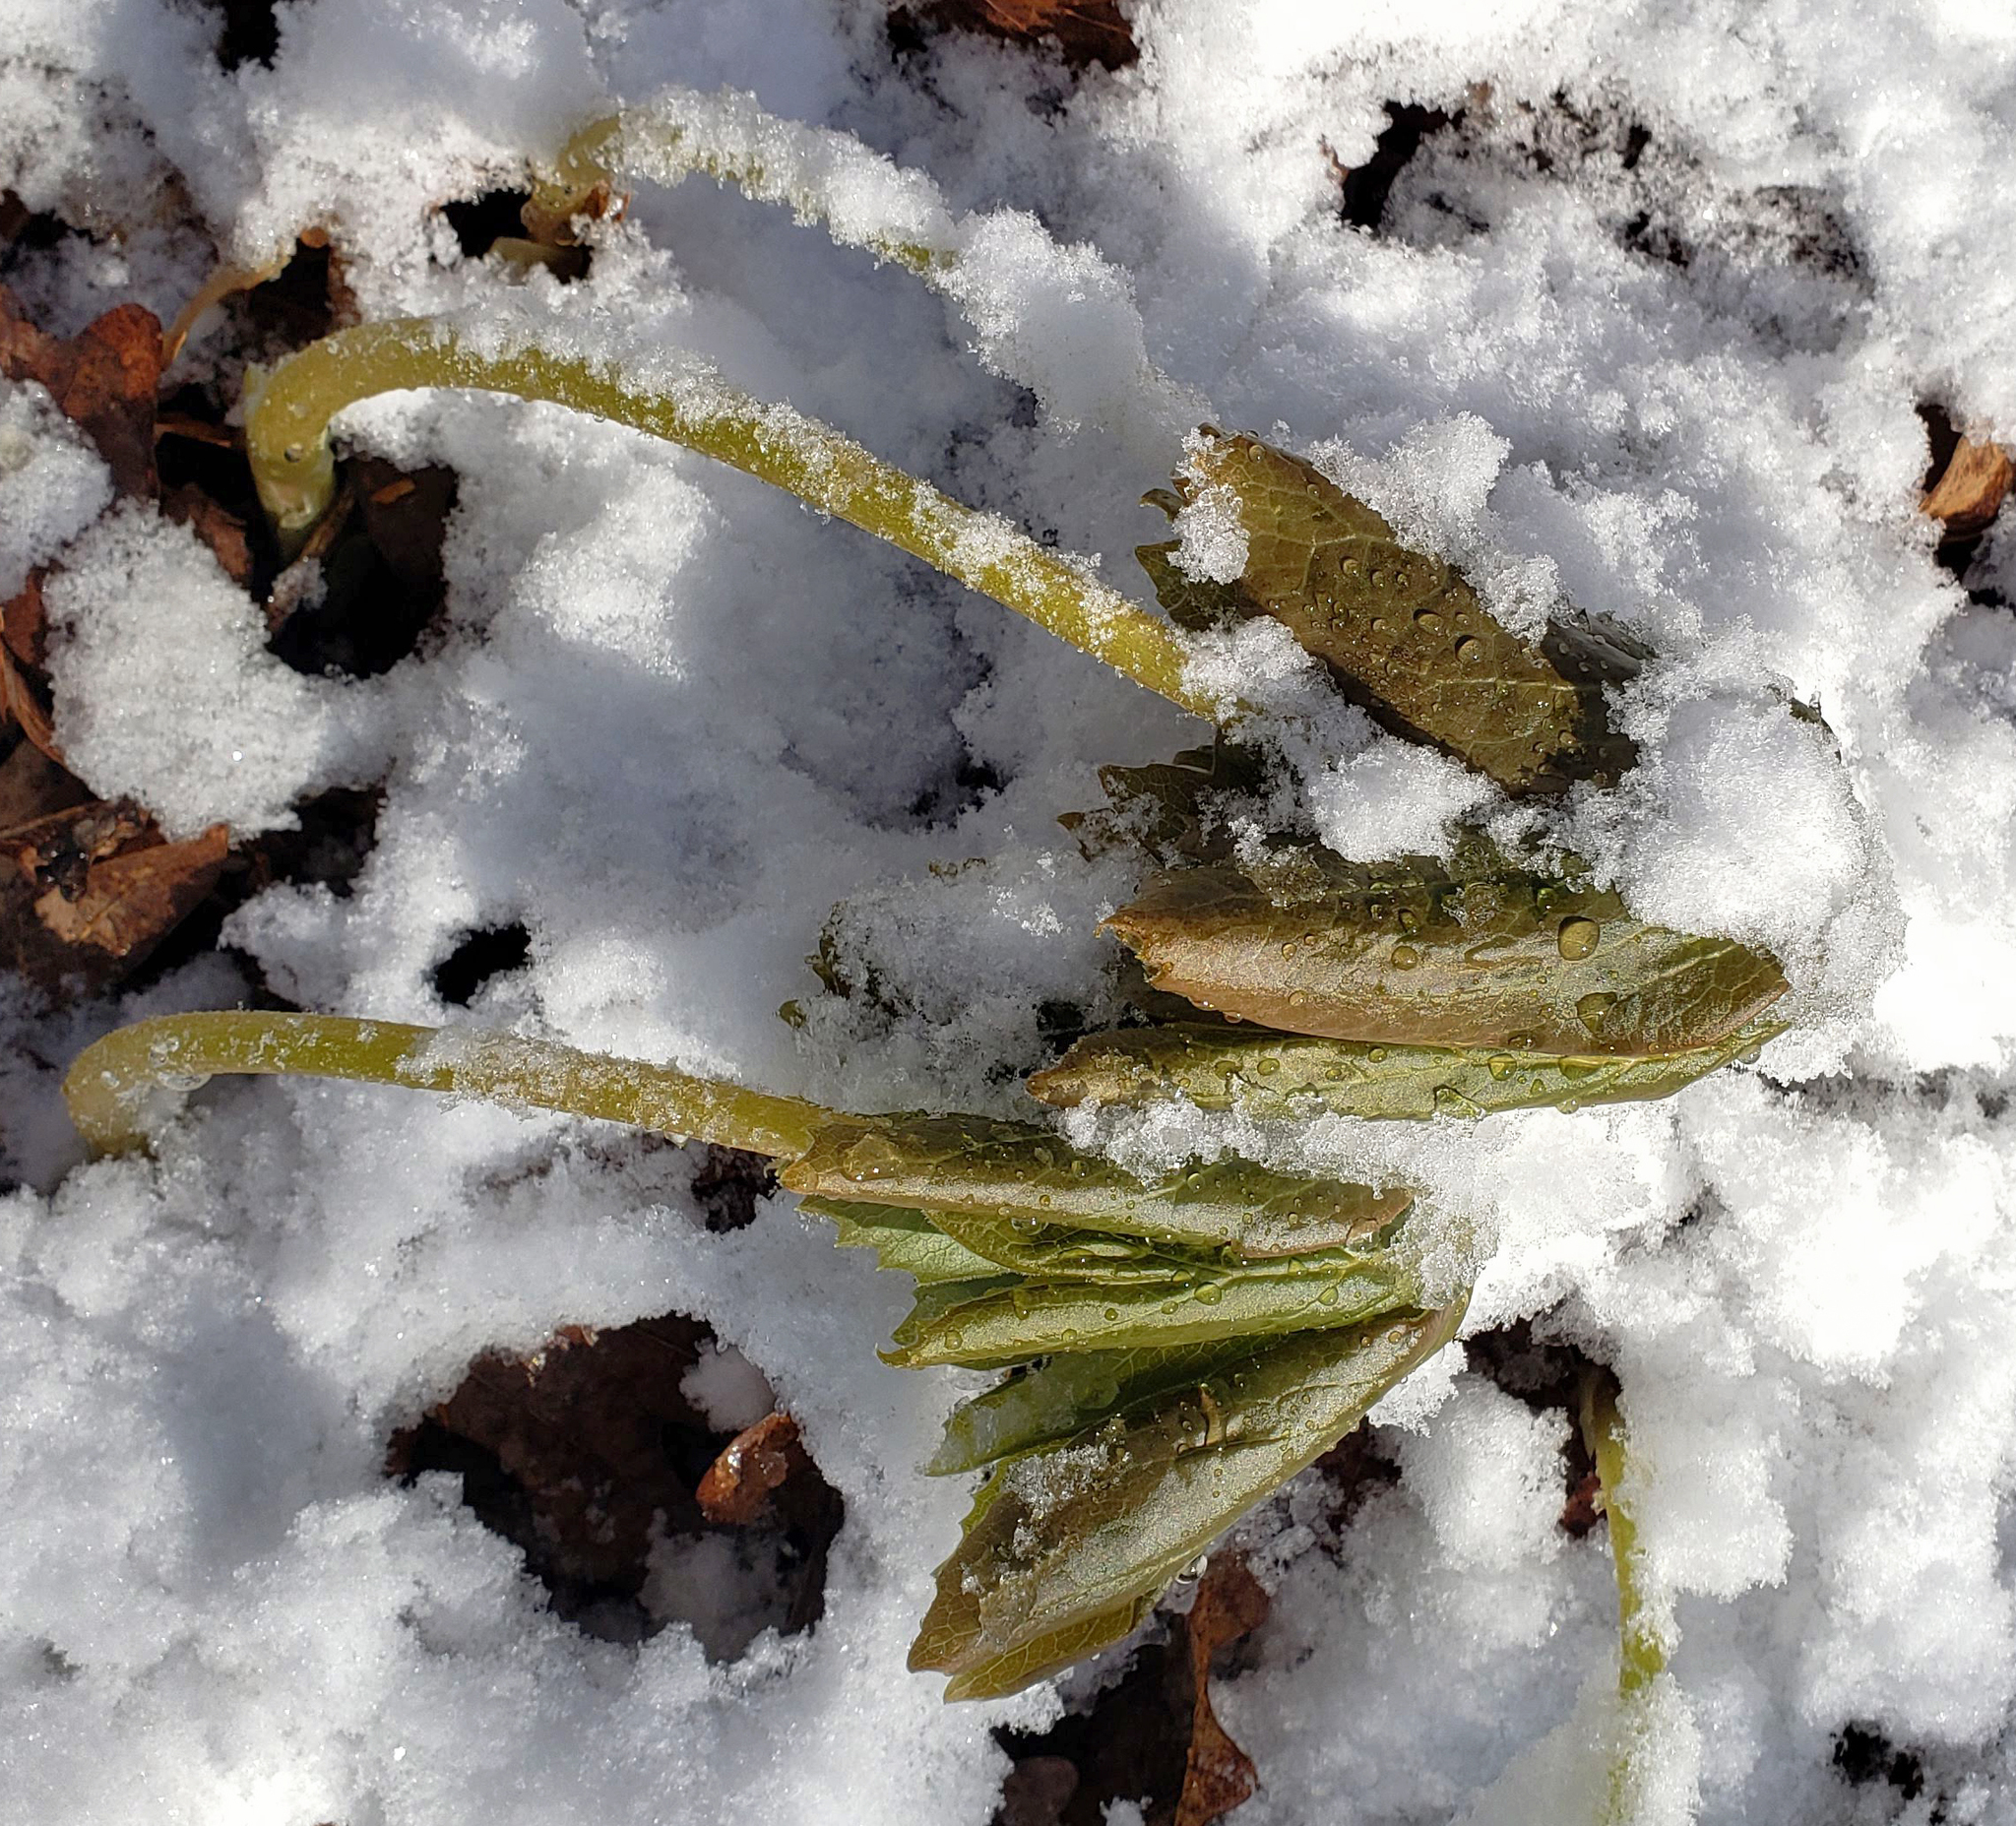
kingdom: Plantae
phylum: Tracheophyta
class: Magnoliopsida
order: Ranunculales
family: Berberidaceae
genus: Podophyllum
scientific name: Podophyllum peltatum
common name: Wild mandrake
